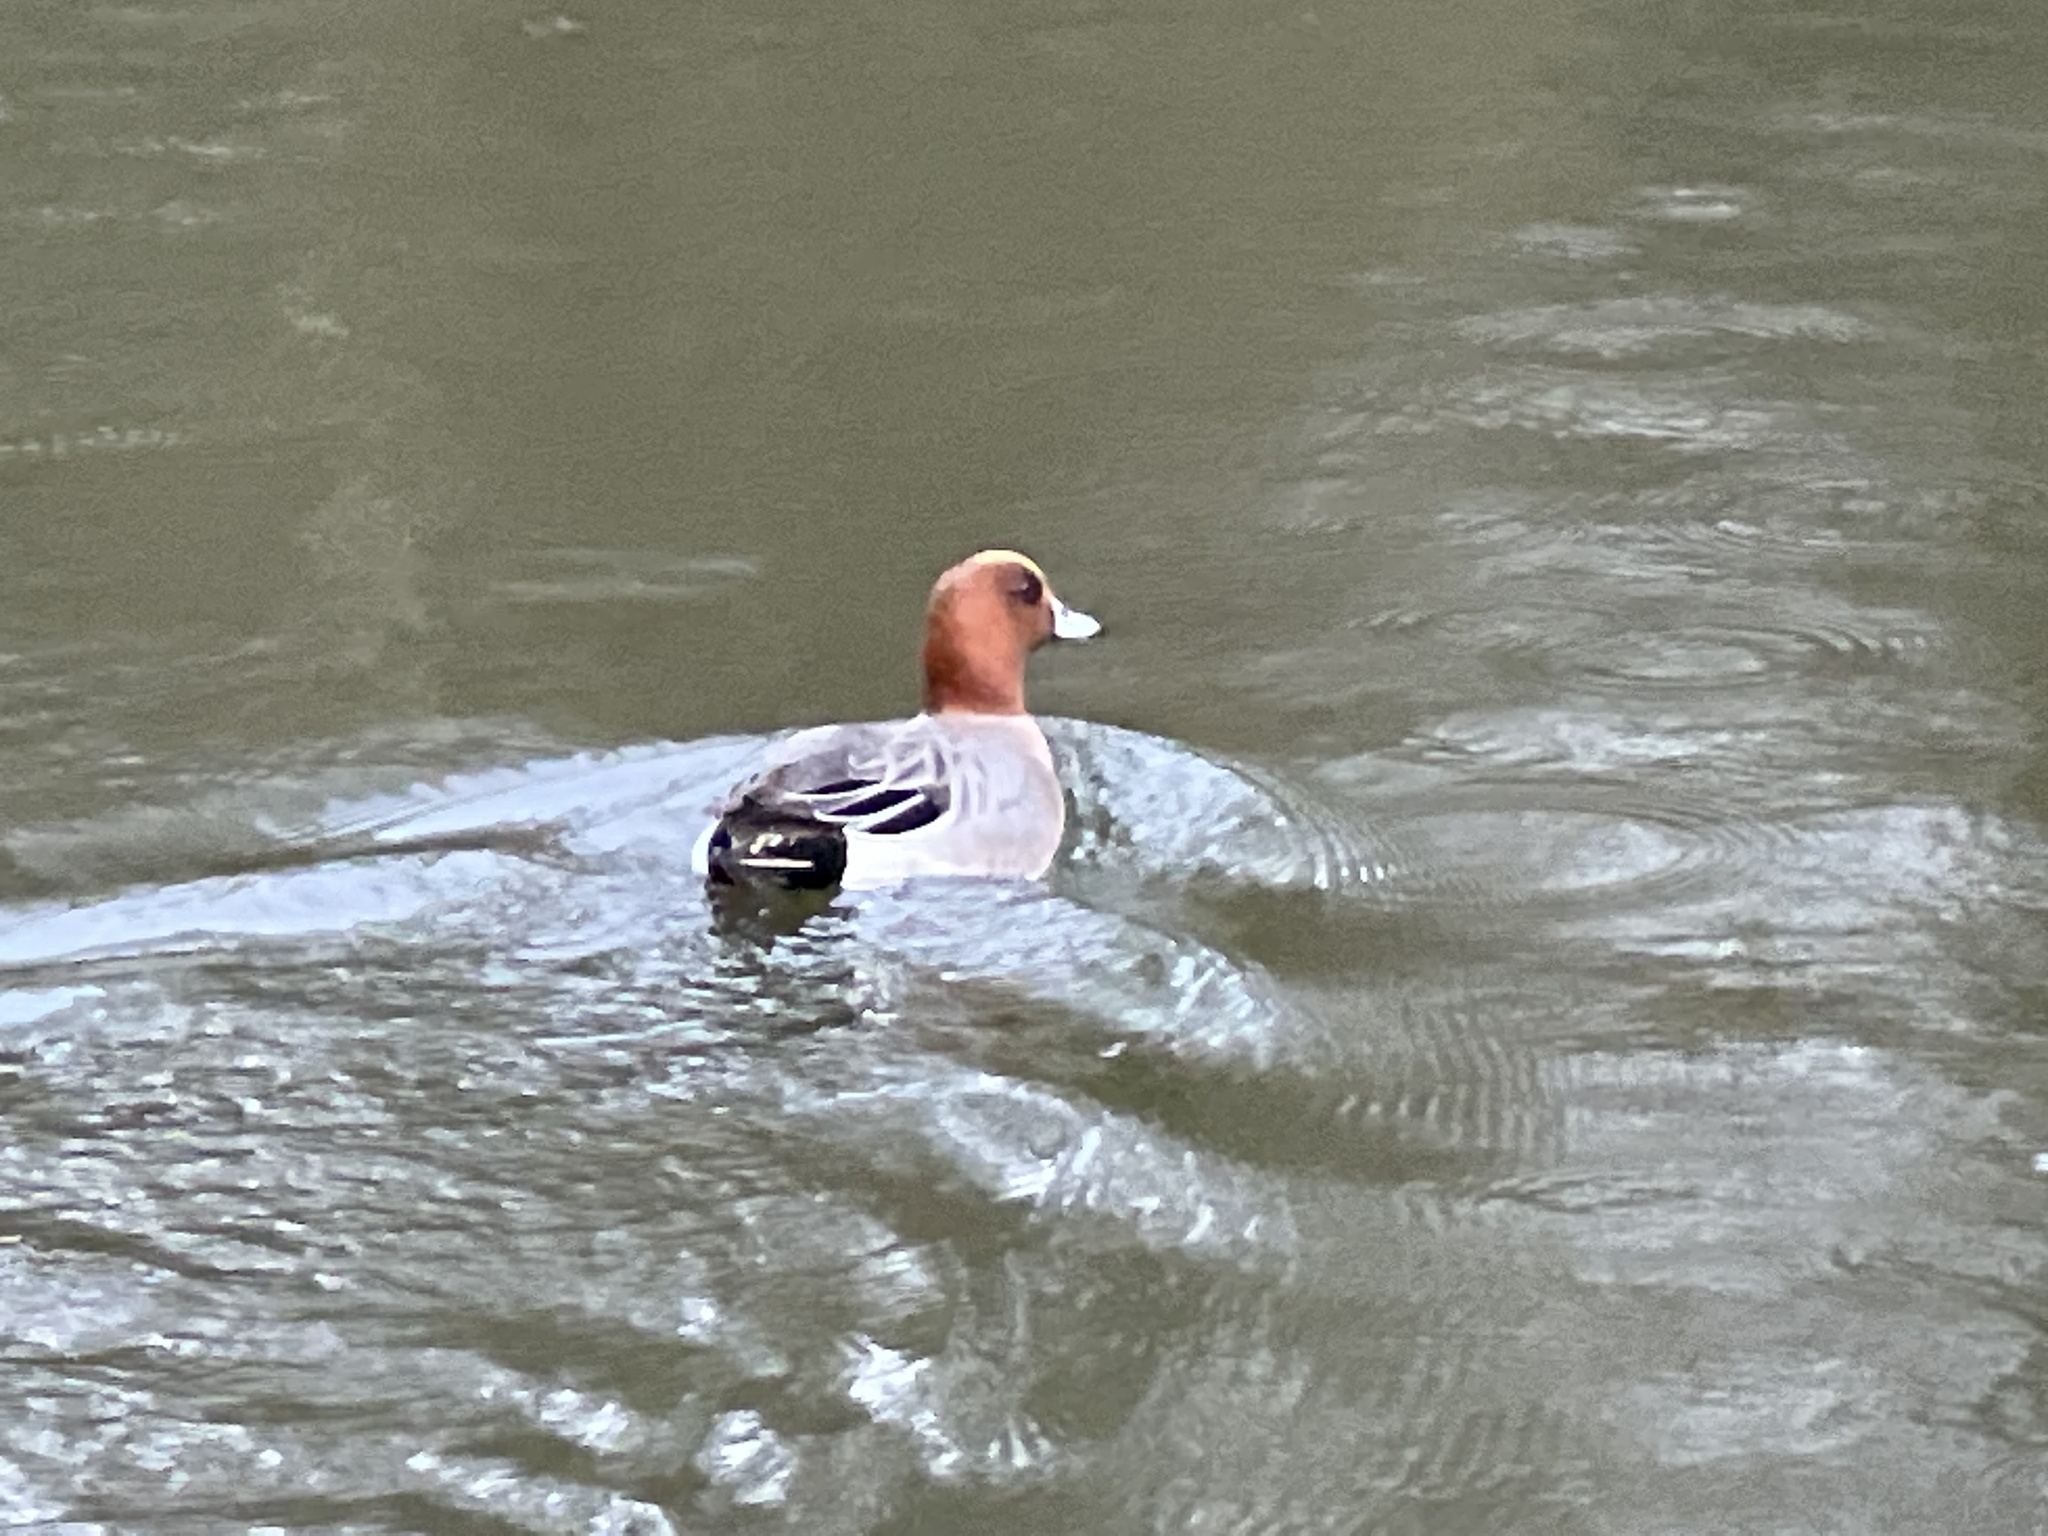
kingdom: Animalia
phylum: Chordata
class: Aves
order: Anseriformes
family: Anatidae
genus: Mareca
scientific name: Mareca penelope
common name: Eurasian wigeon
